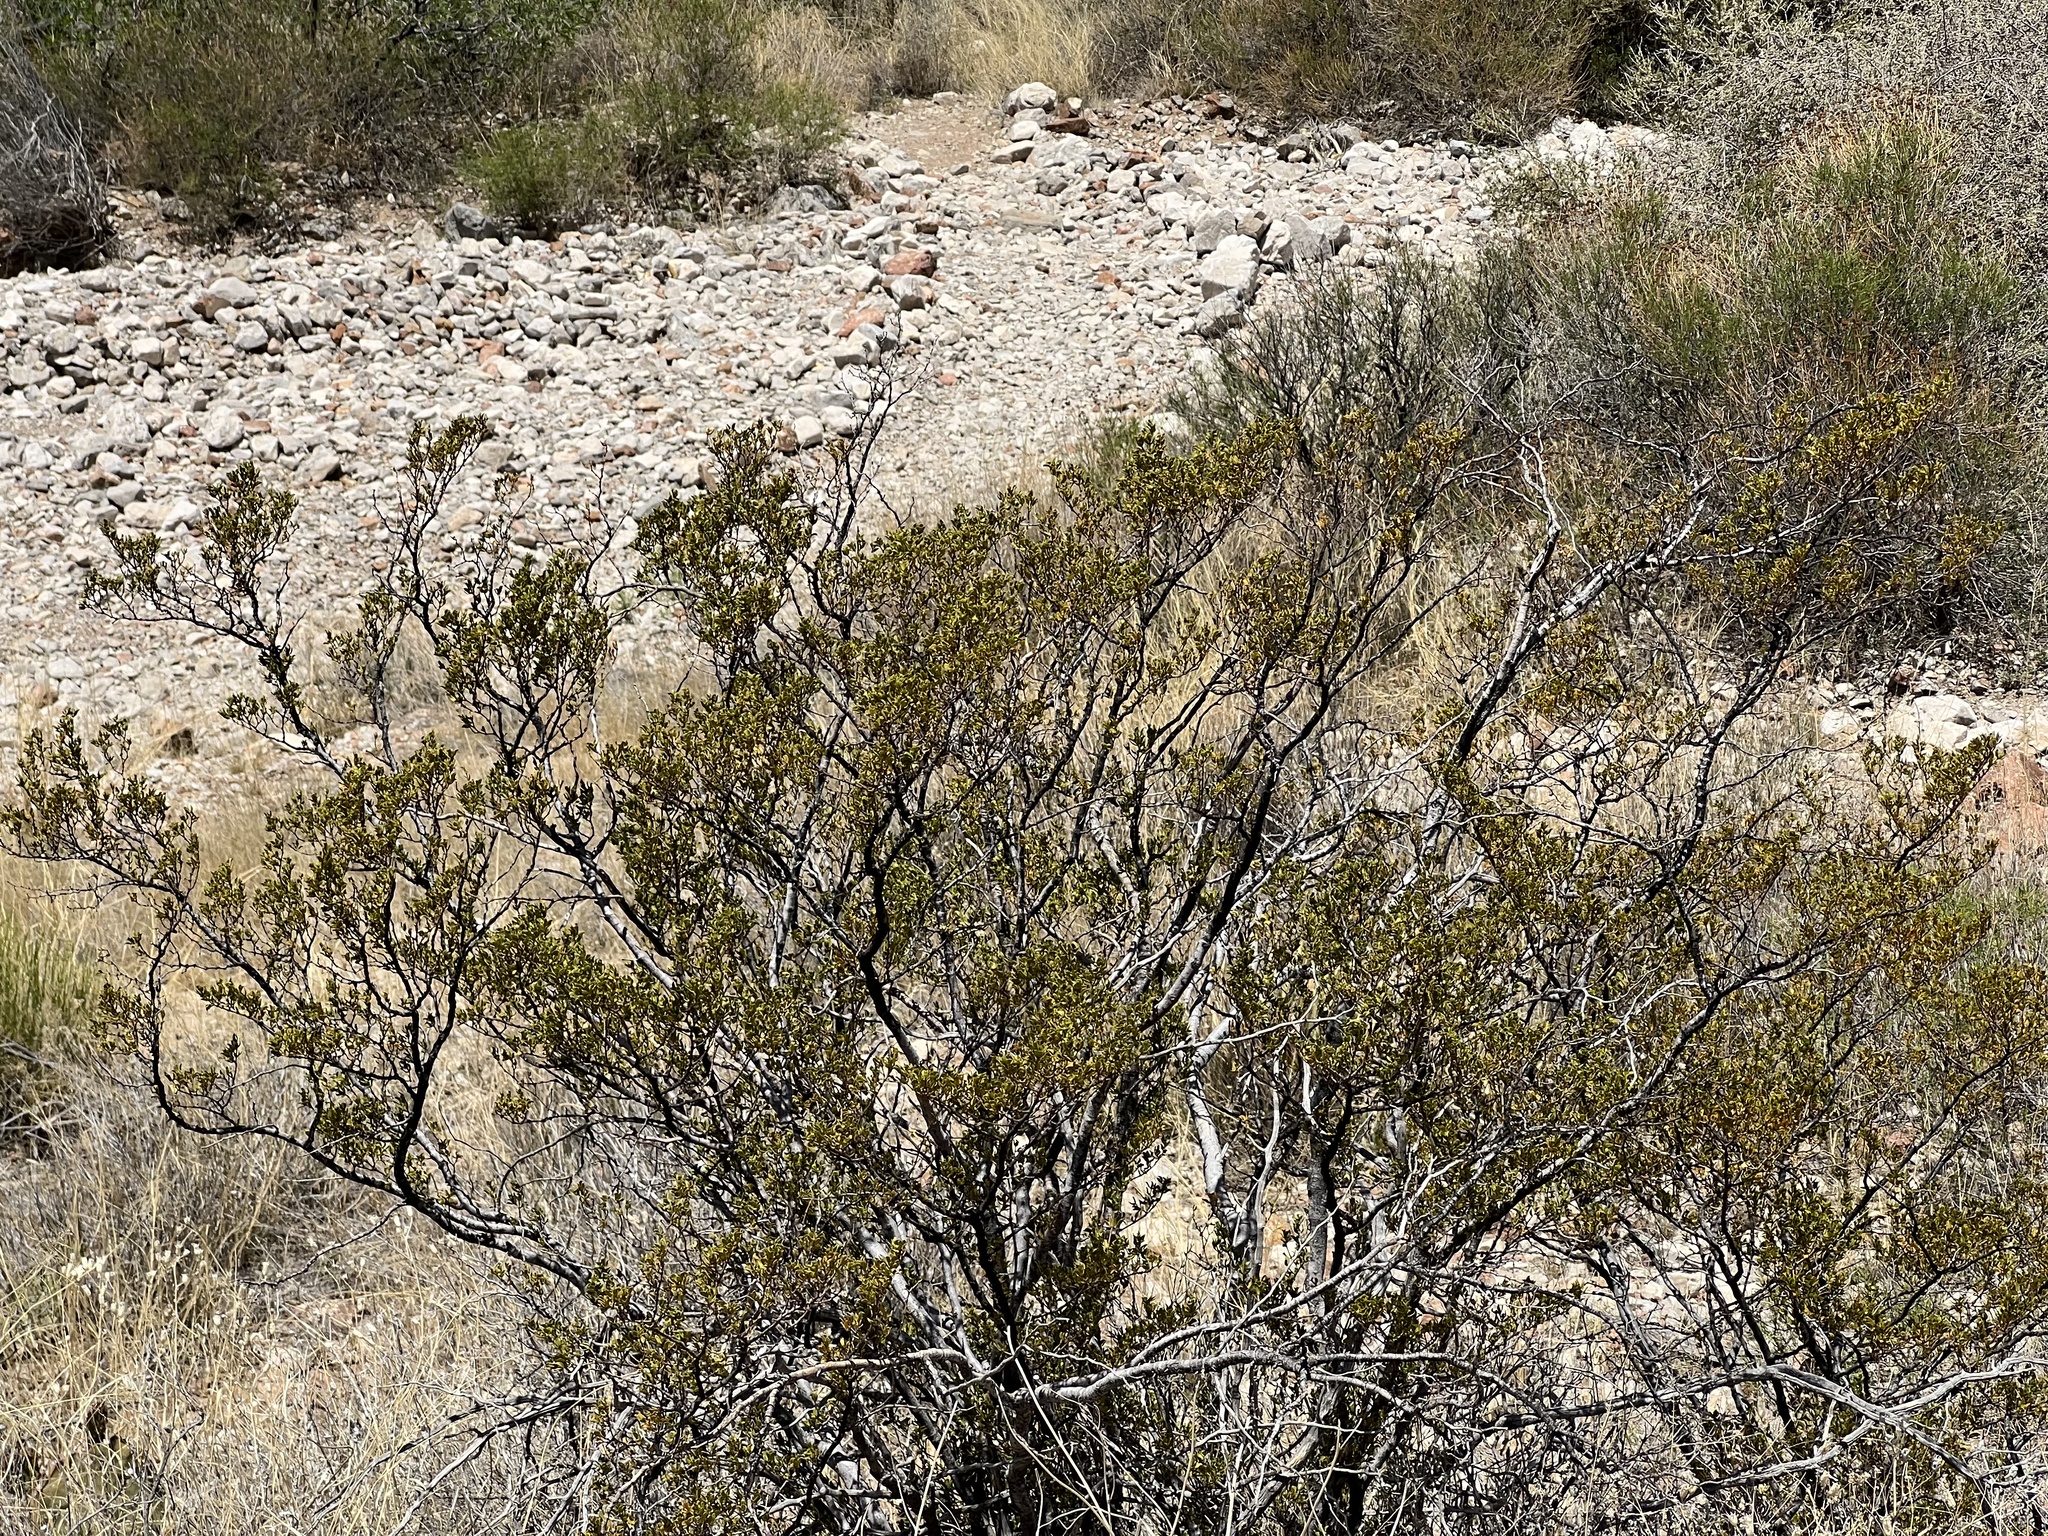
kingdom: Plantae
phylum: Tracheophyta
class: Magnoliopsida
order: Zygophyllales
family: Zygophyllaceae
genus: Larrea
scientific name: Larrea tridentata
